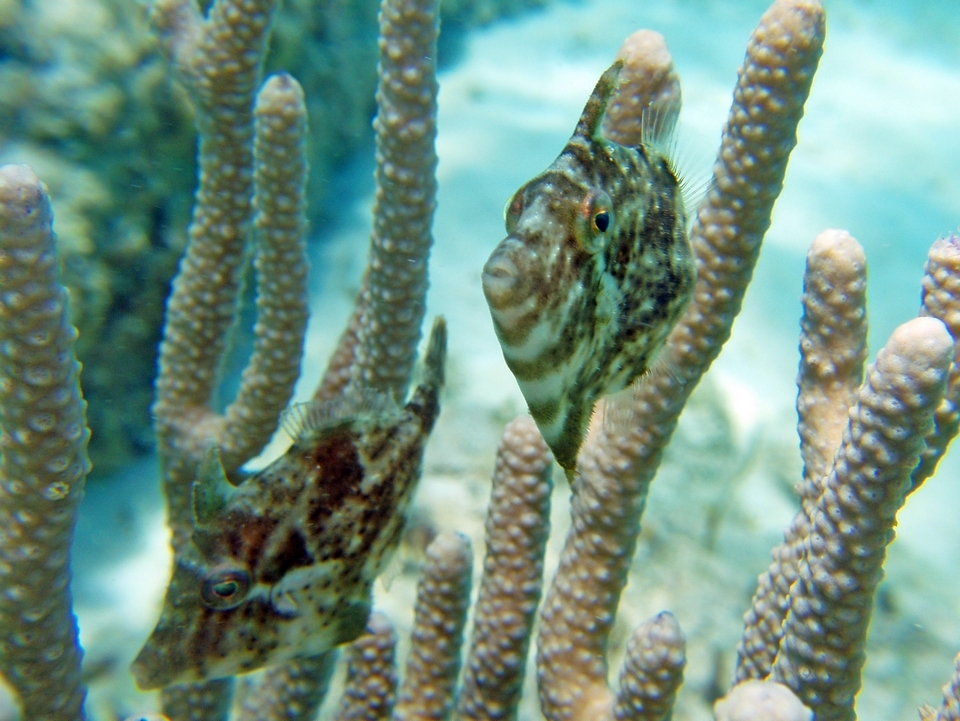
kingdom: Animalia
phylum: Chordata
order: Tetraodontiformes
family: Monacanthidae
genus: Stephanolepis
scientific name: Stephanolepis setifer
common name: Pygmy filefish
